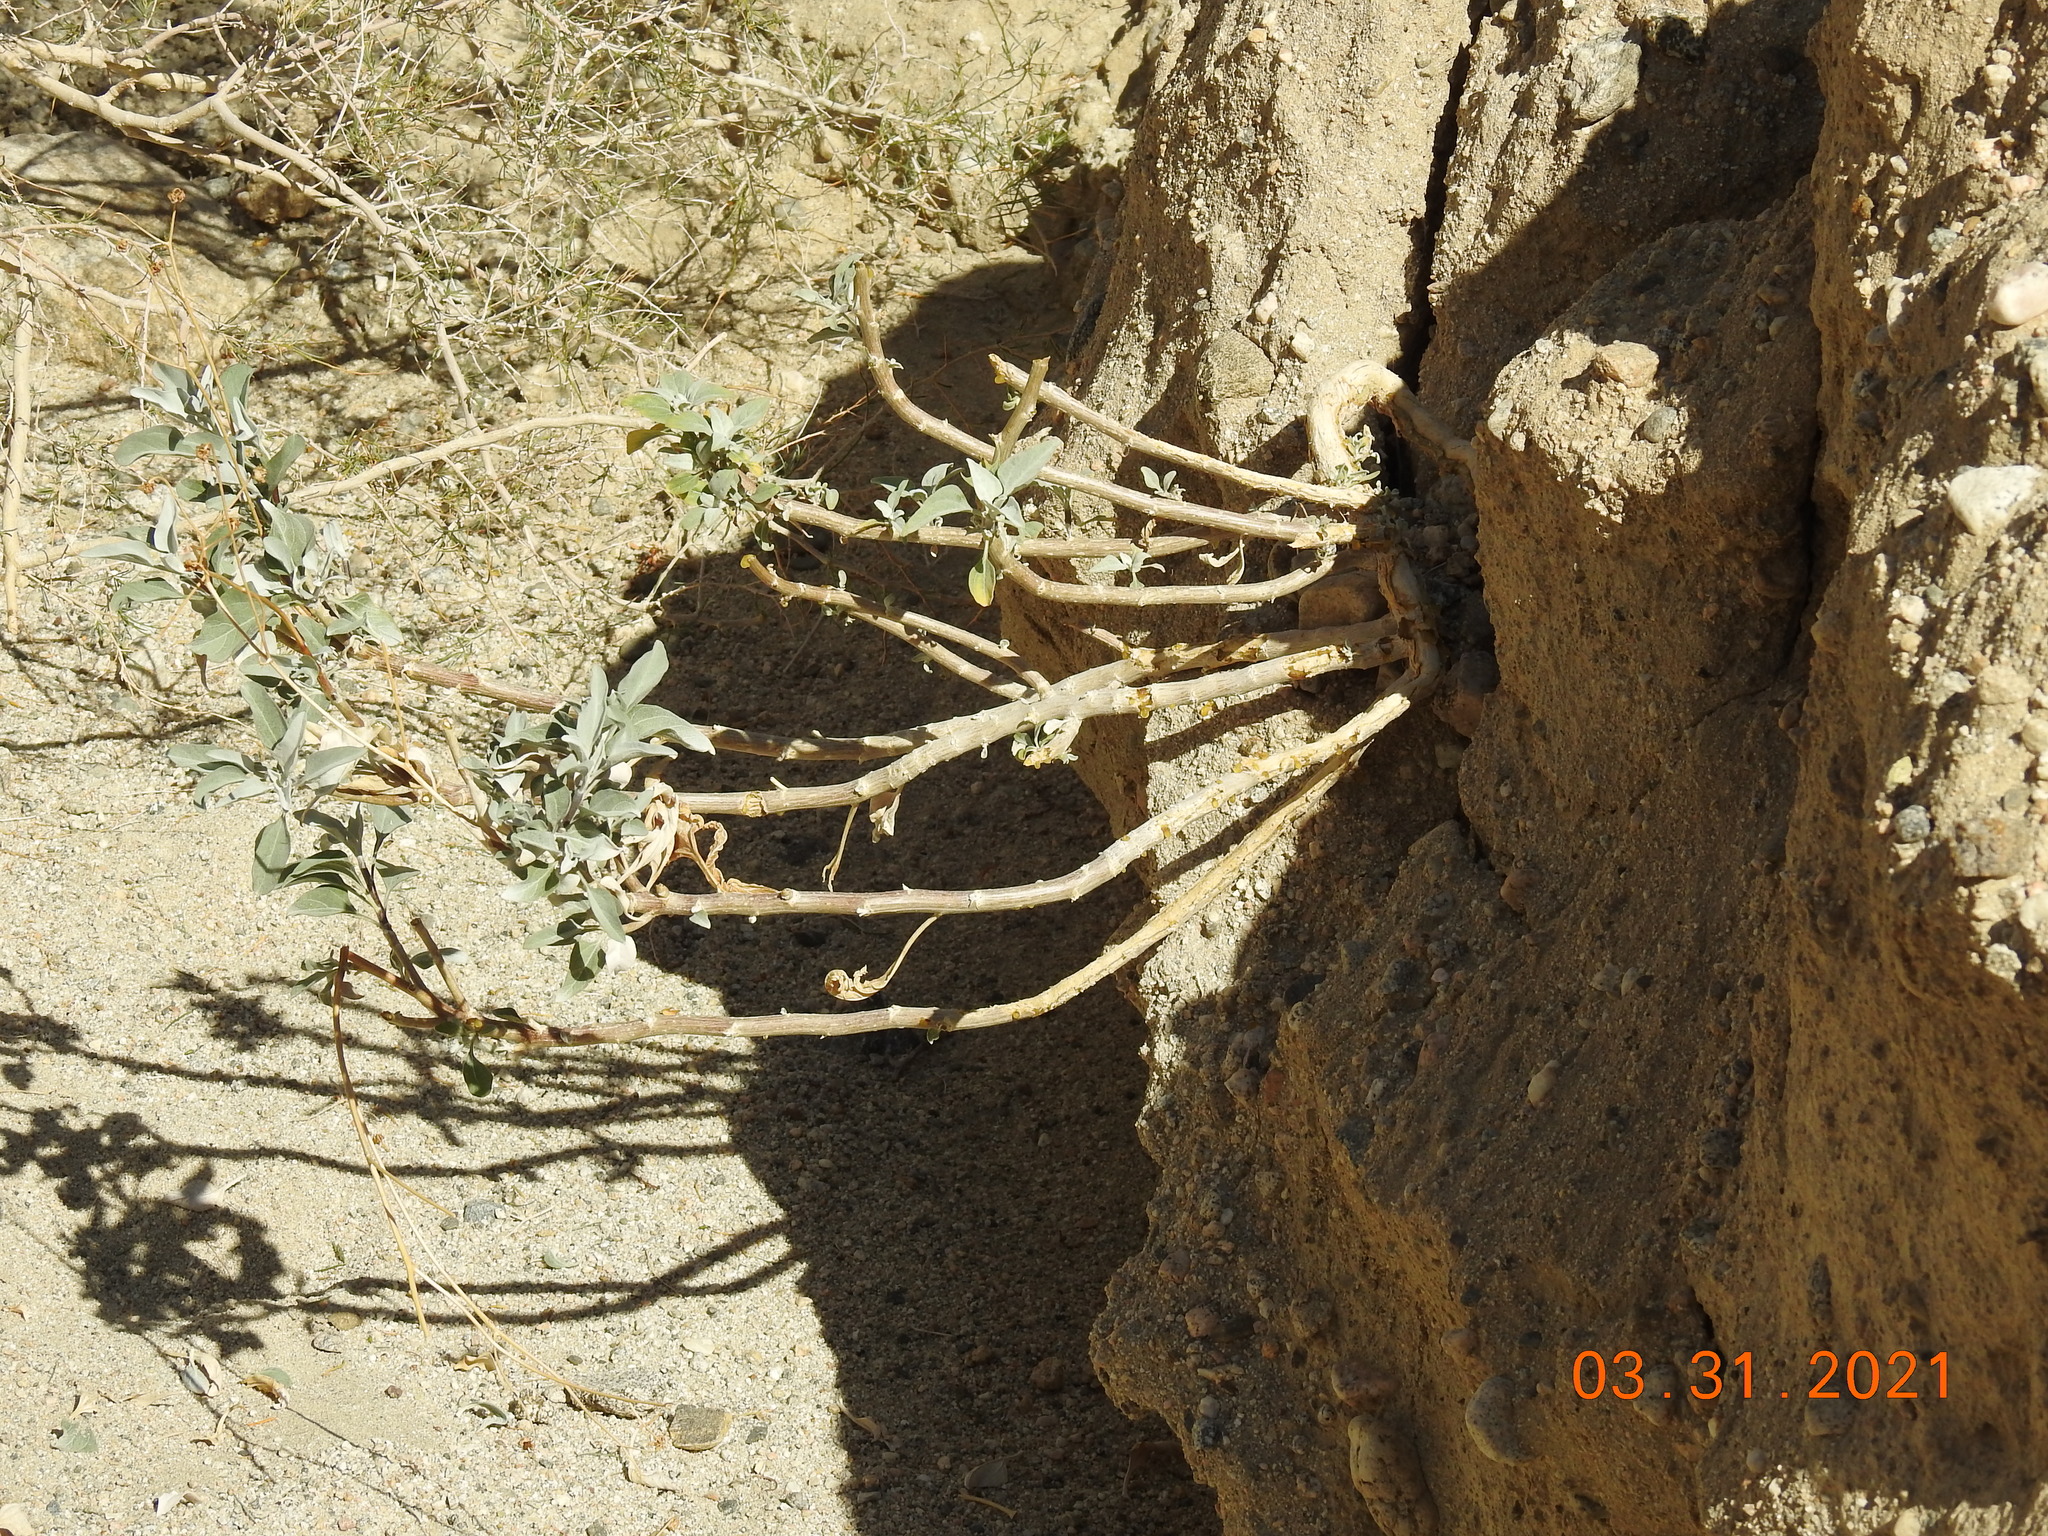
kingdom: Plantae
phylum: Tracheophyta
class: Magnoliopsida
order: Asterales
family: Asteraceae
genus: Encelia
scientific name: Encelia farinosa
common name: Brittlebush
